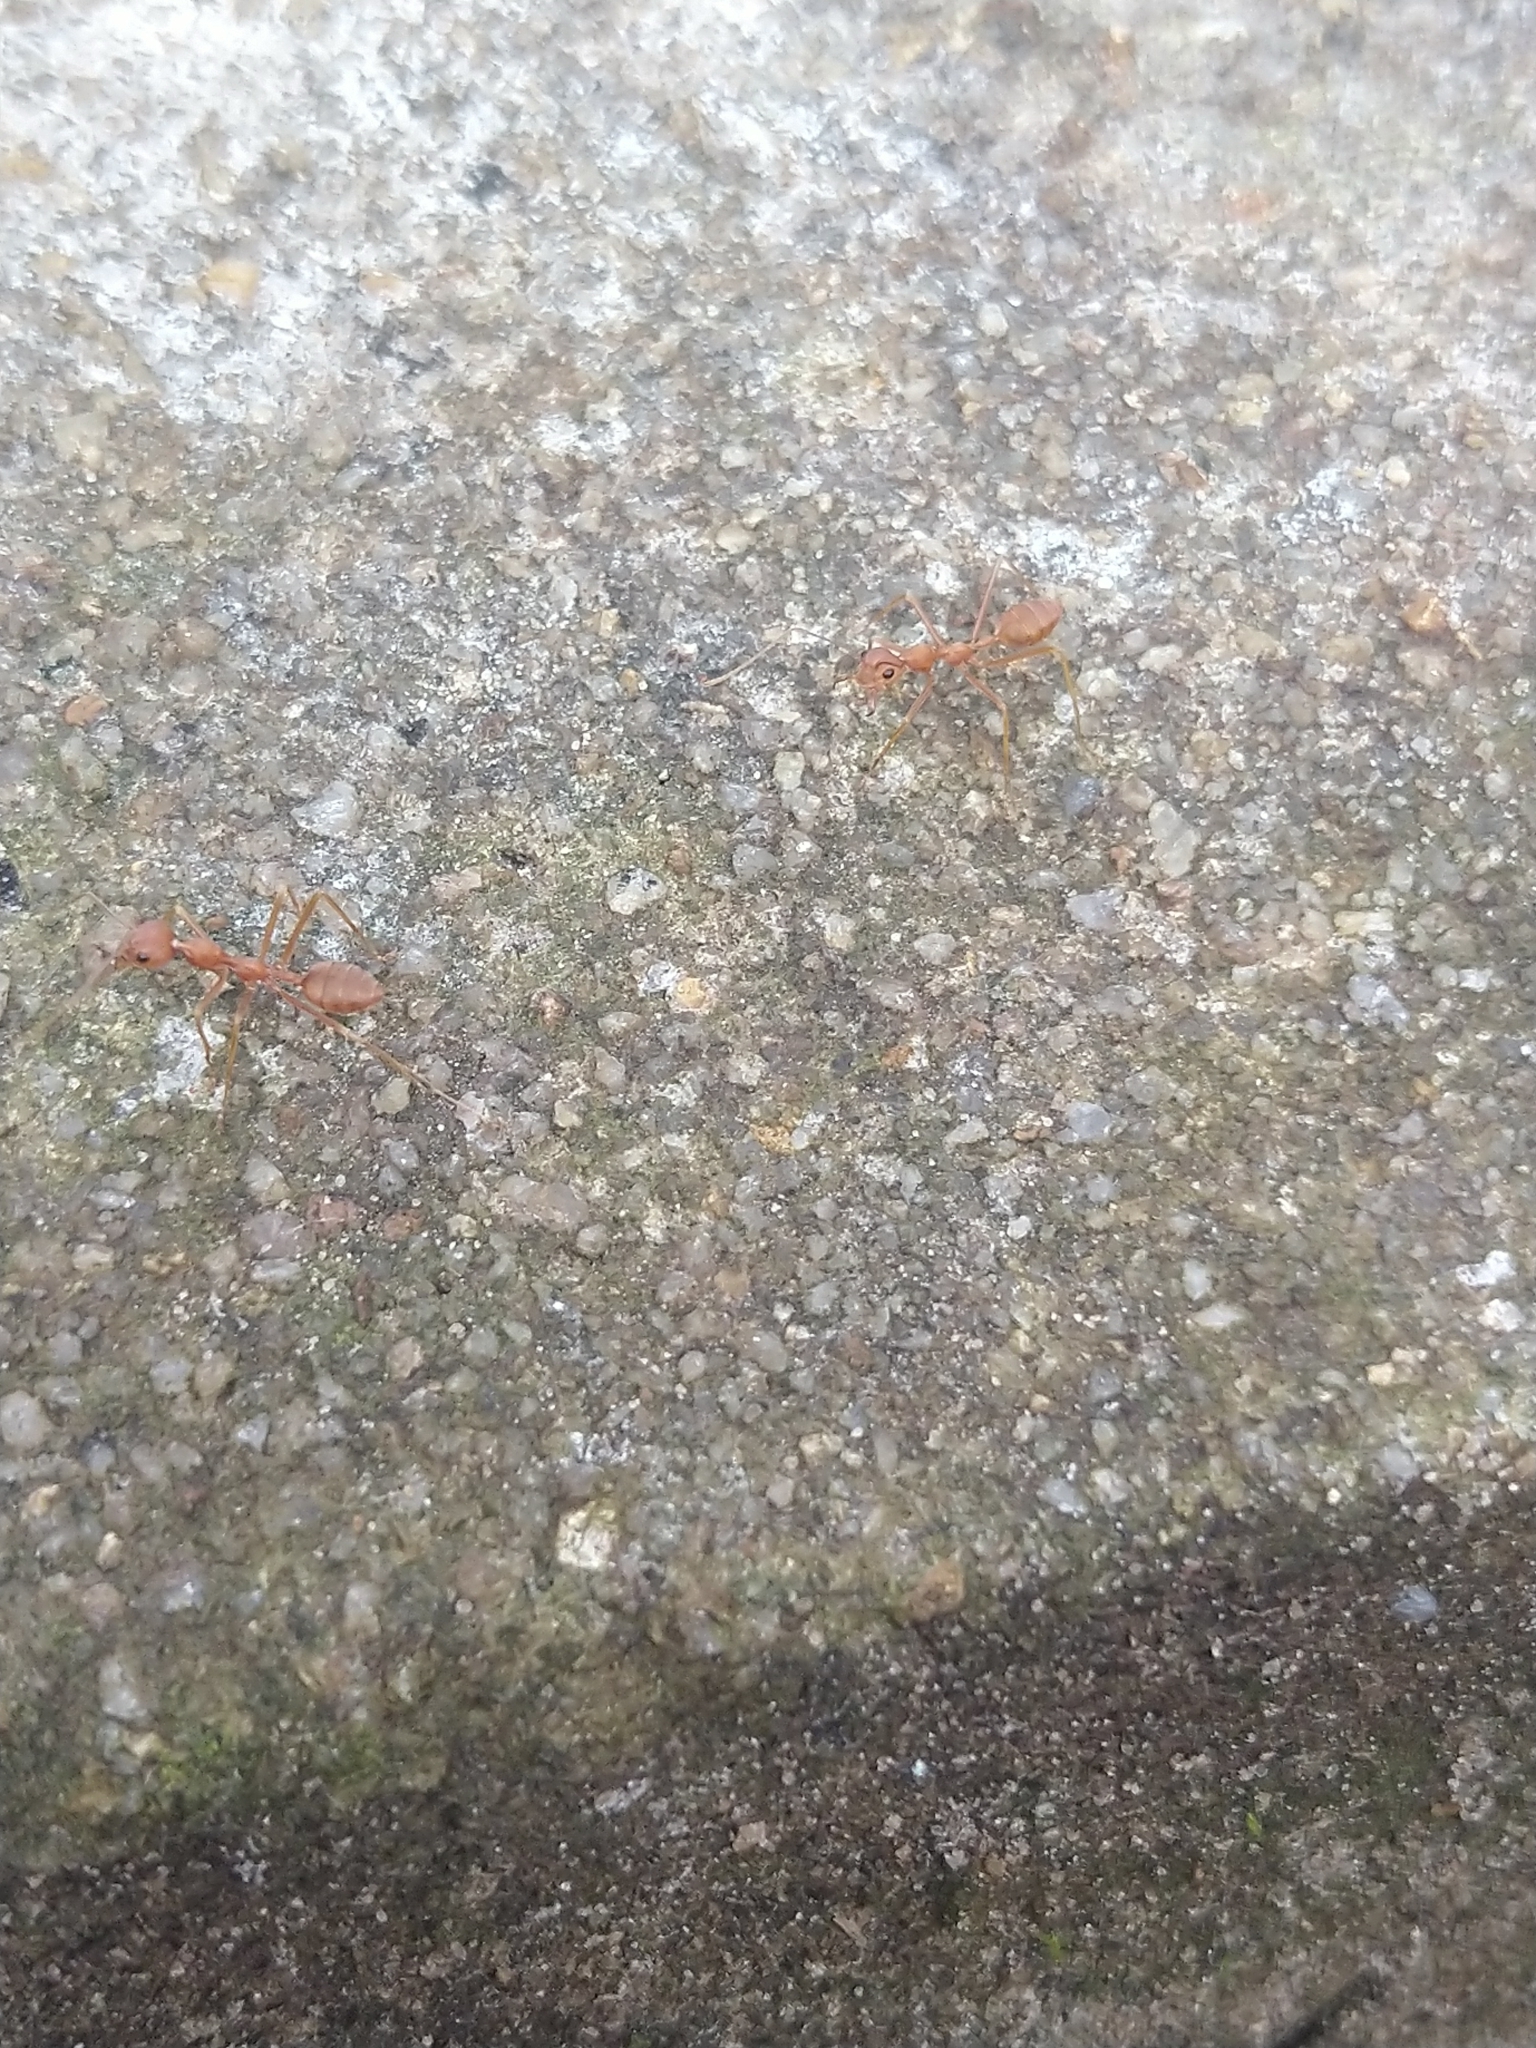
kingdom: Animalia
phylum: Arthropoda
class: Insecta
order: Hymenoptera
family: Formicidae
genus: Oecophylla
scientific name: Oecophylla smaragdina
